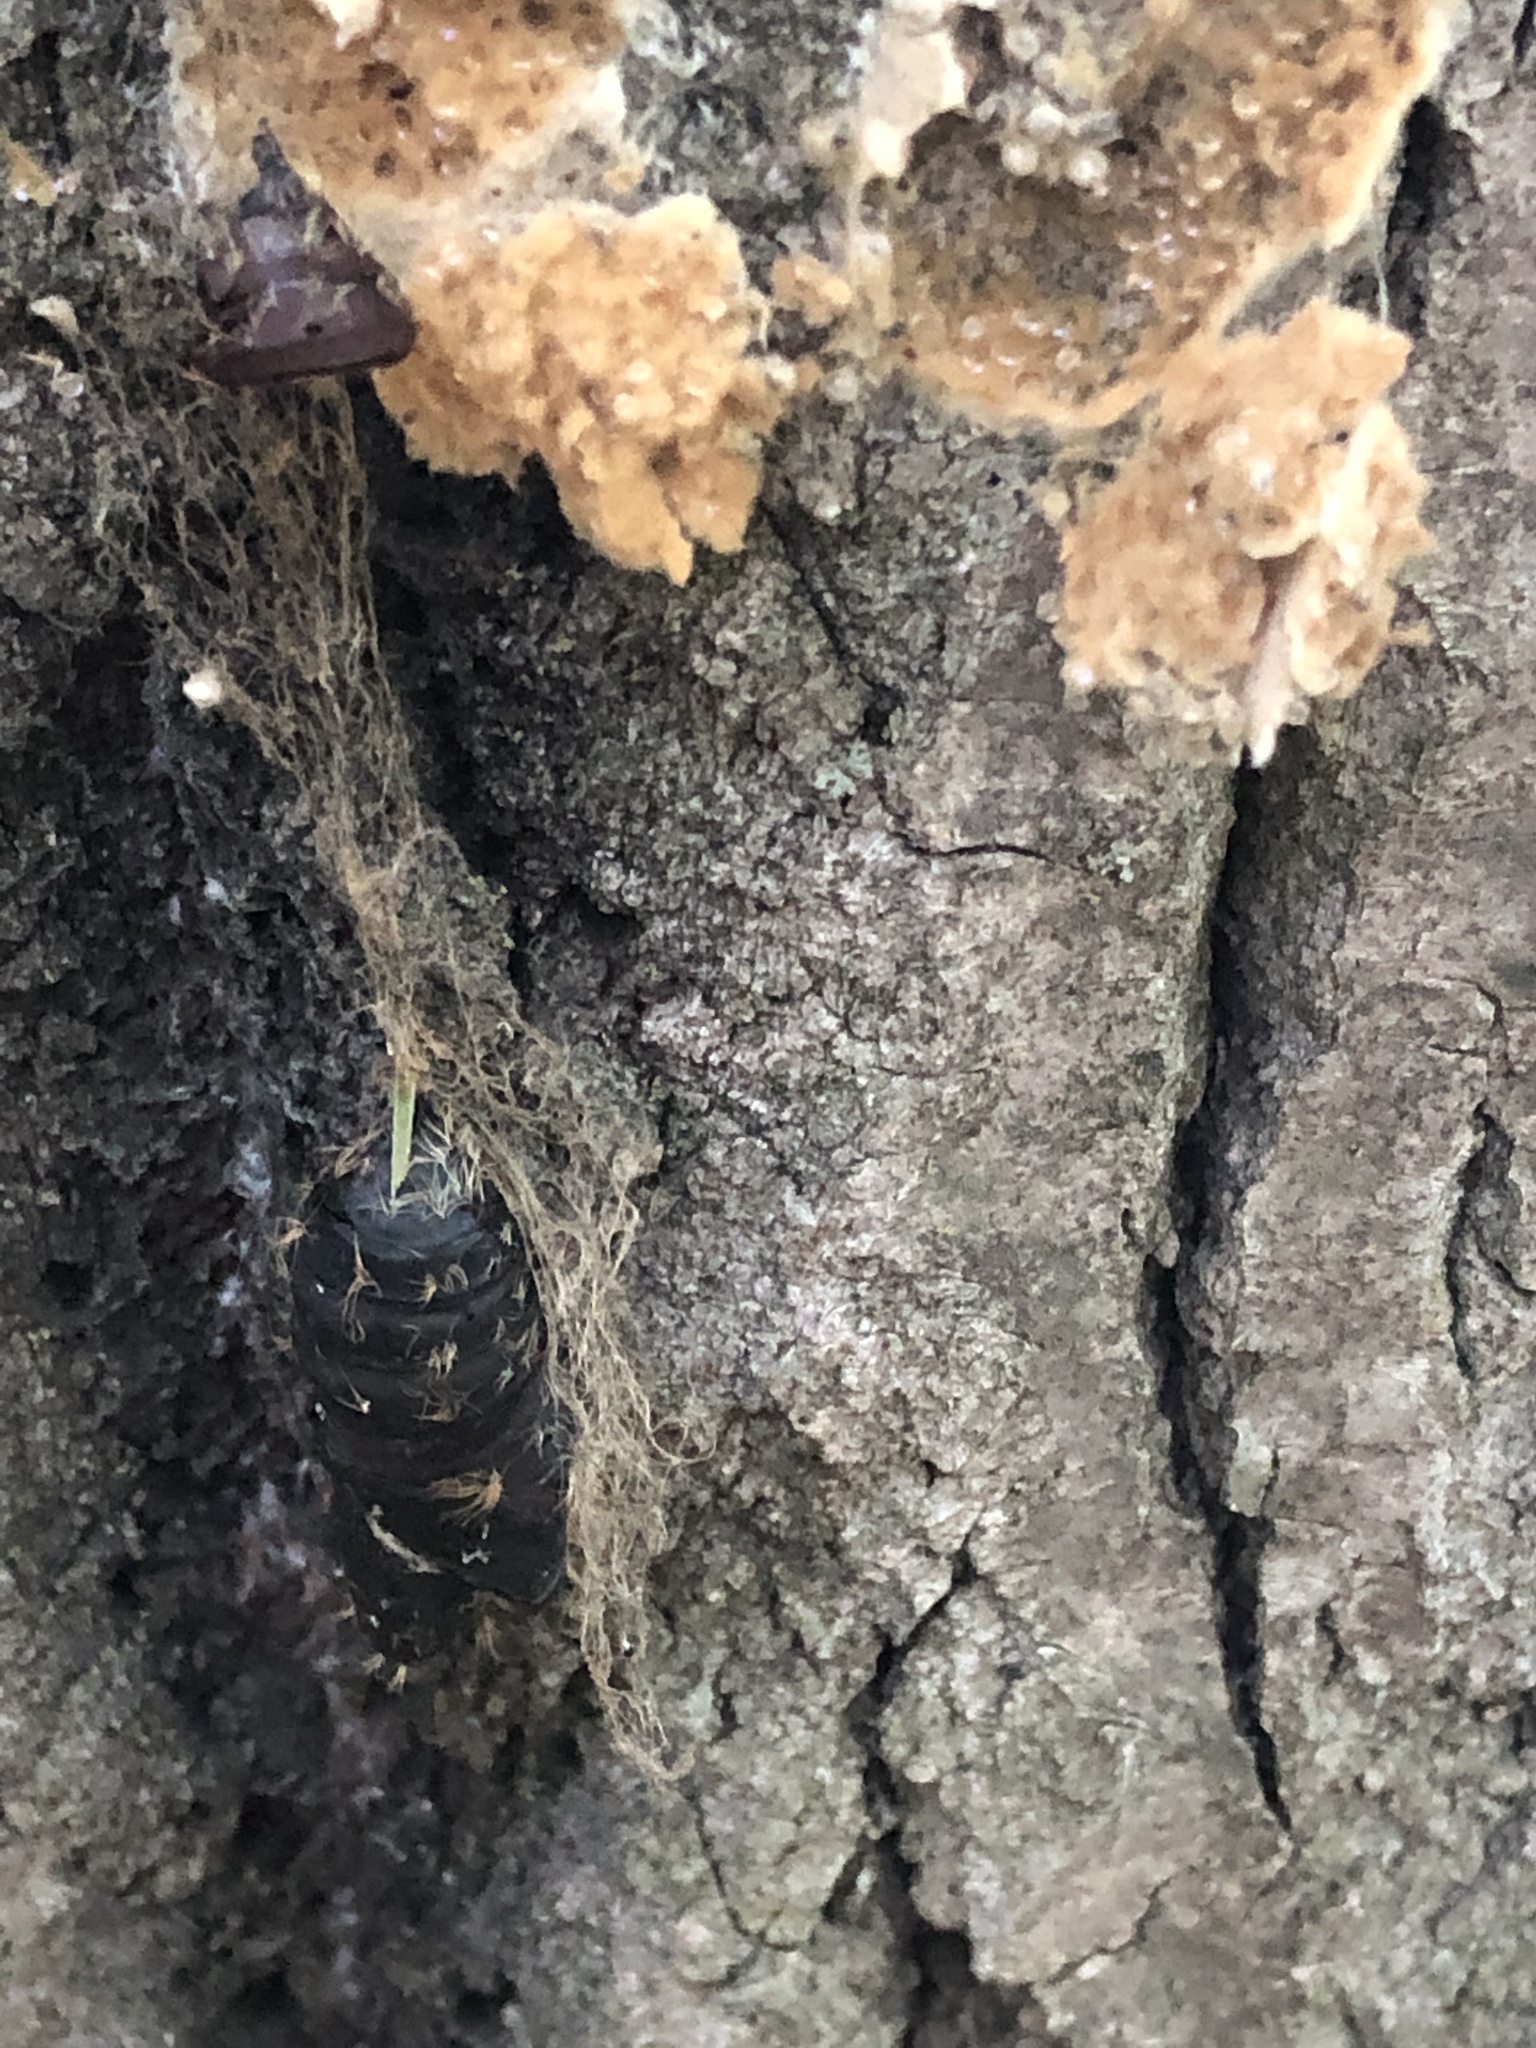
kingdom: Animalia
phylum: Arthropoda
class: Insecta
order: Lepidoptera
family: Erebidae
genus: Lymantria
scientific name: Lymantria dispar
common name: Gypsy moth
